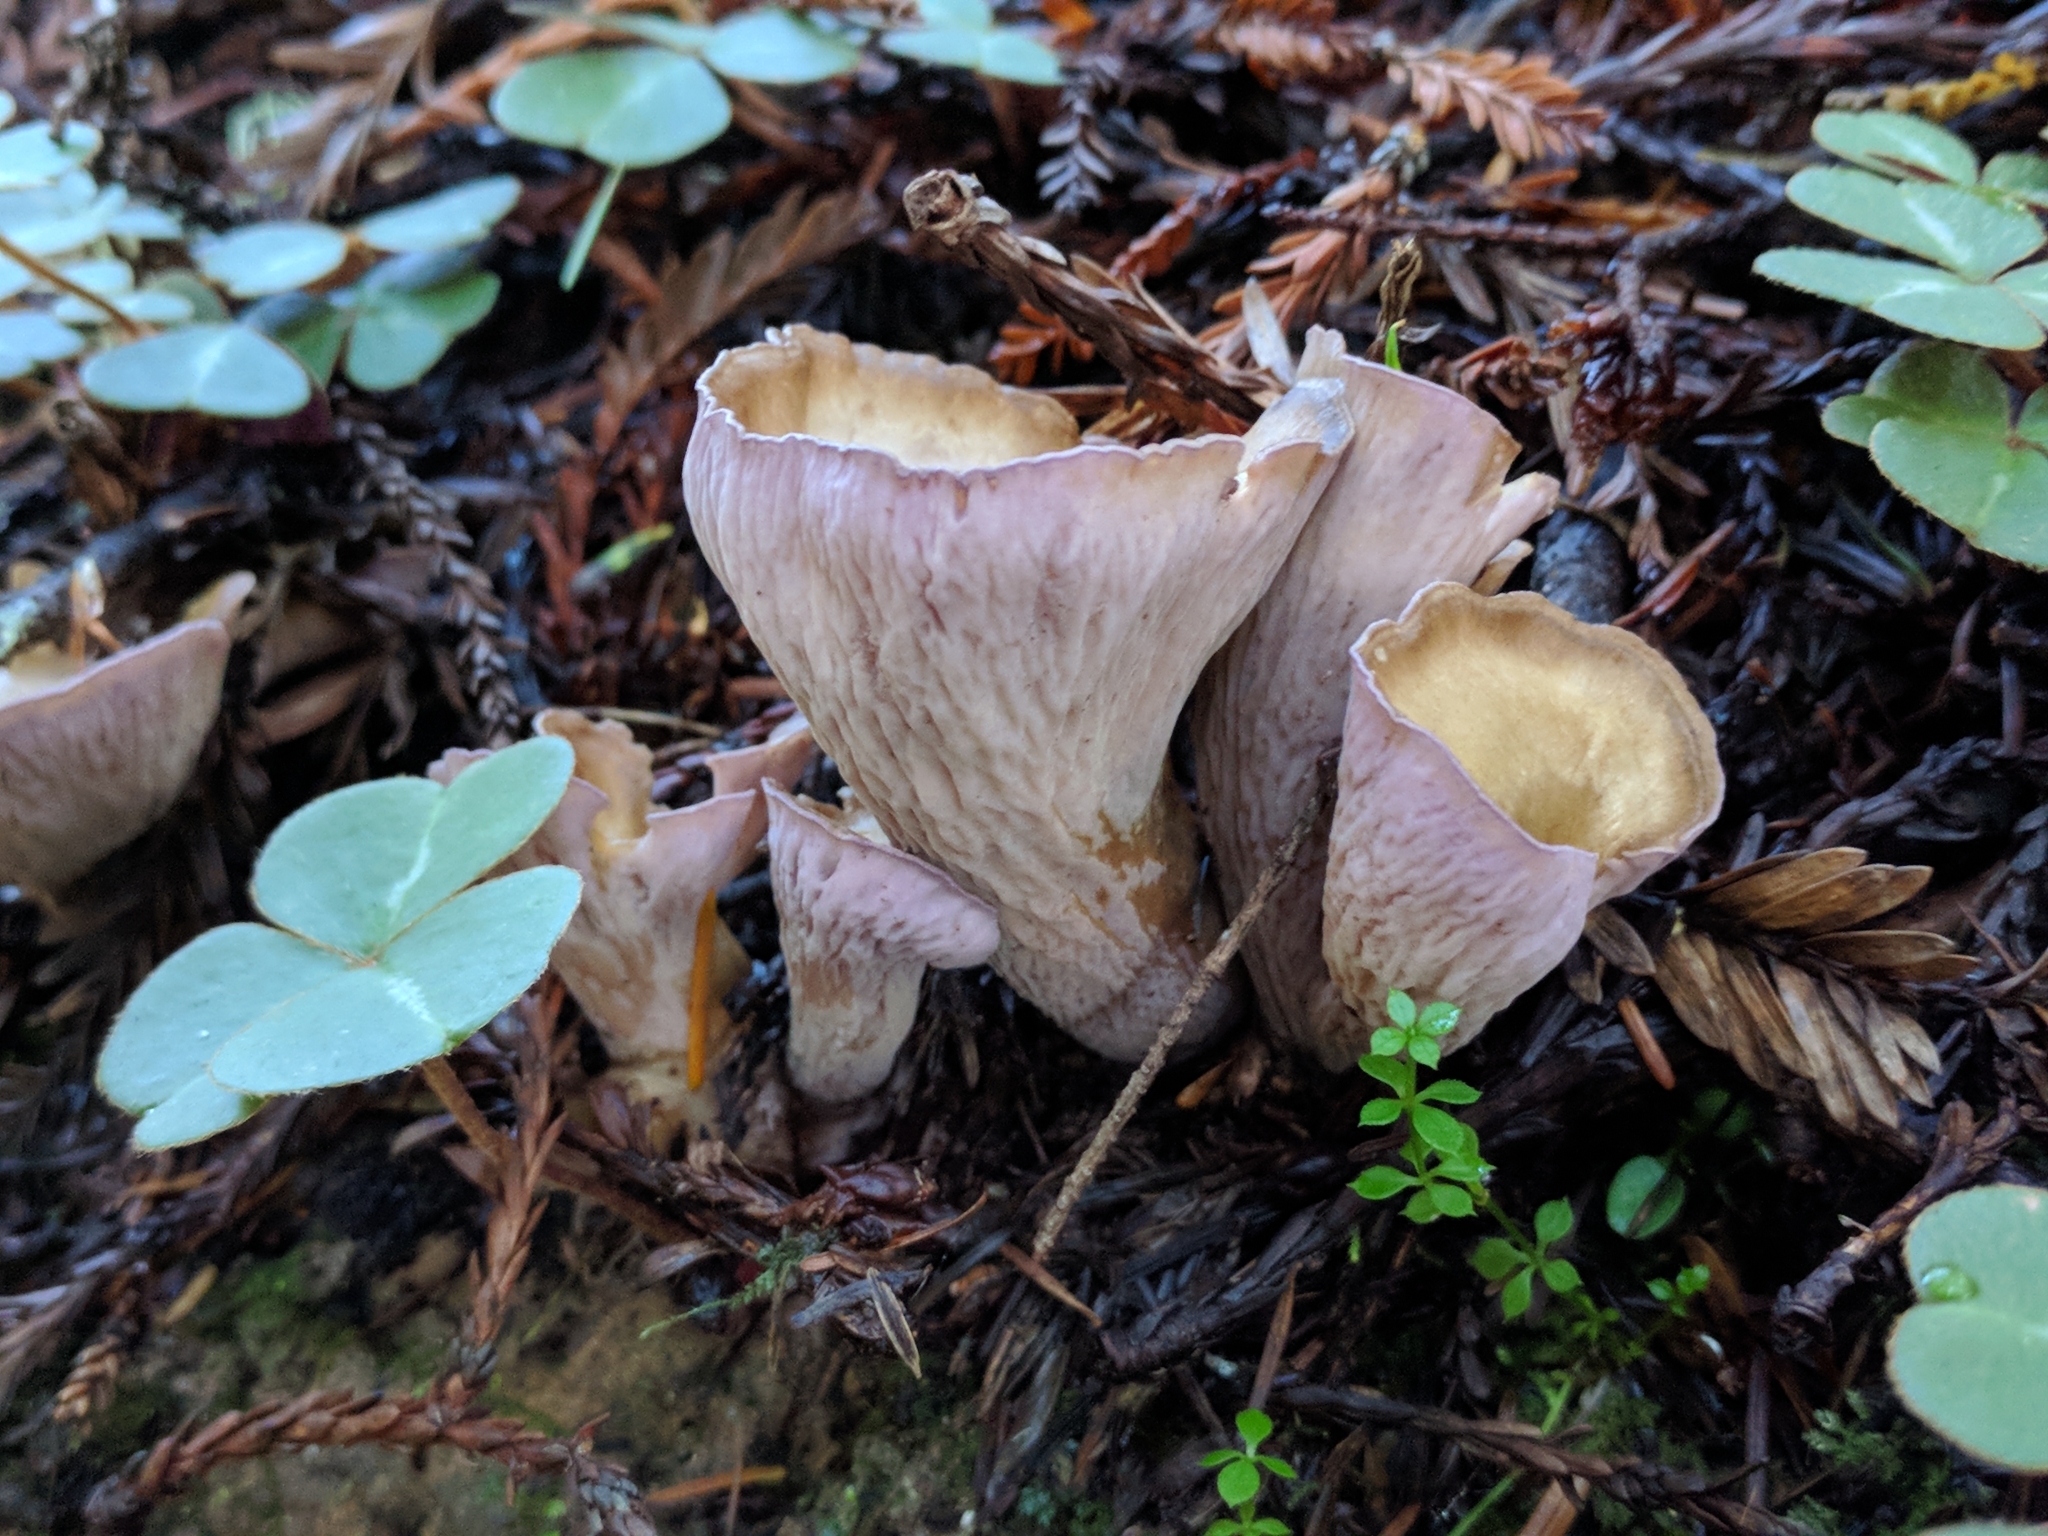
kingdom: Fungi
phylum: Basidiomycota
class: Agaricomycetes
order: Gomphales
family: Gomphaceae
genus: Gomphus
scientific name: Gomphus clavatus
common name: Pig's ear
